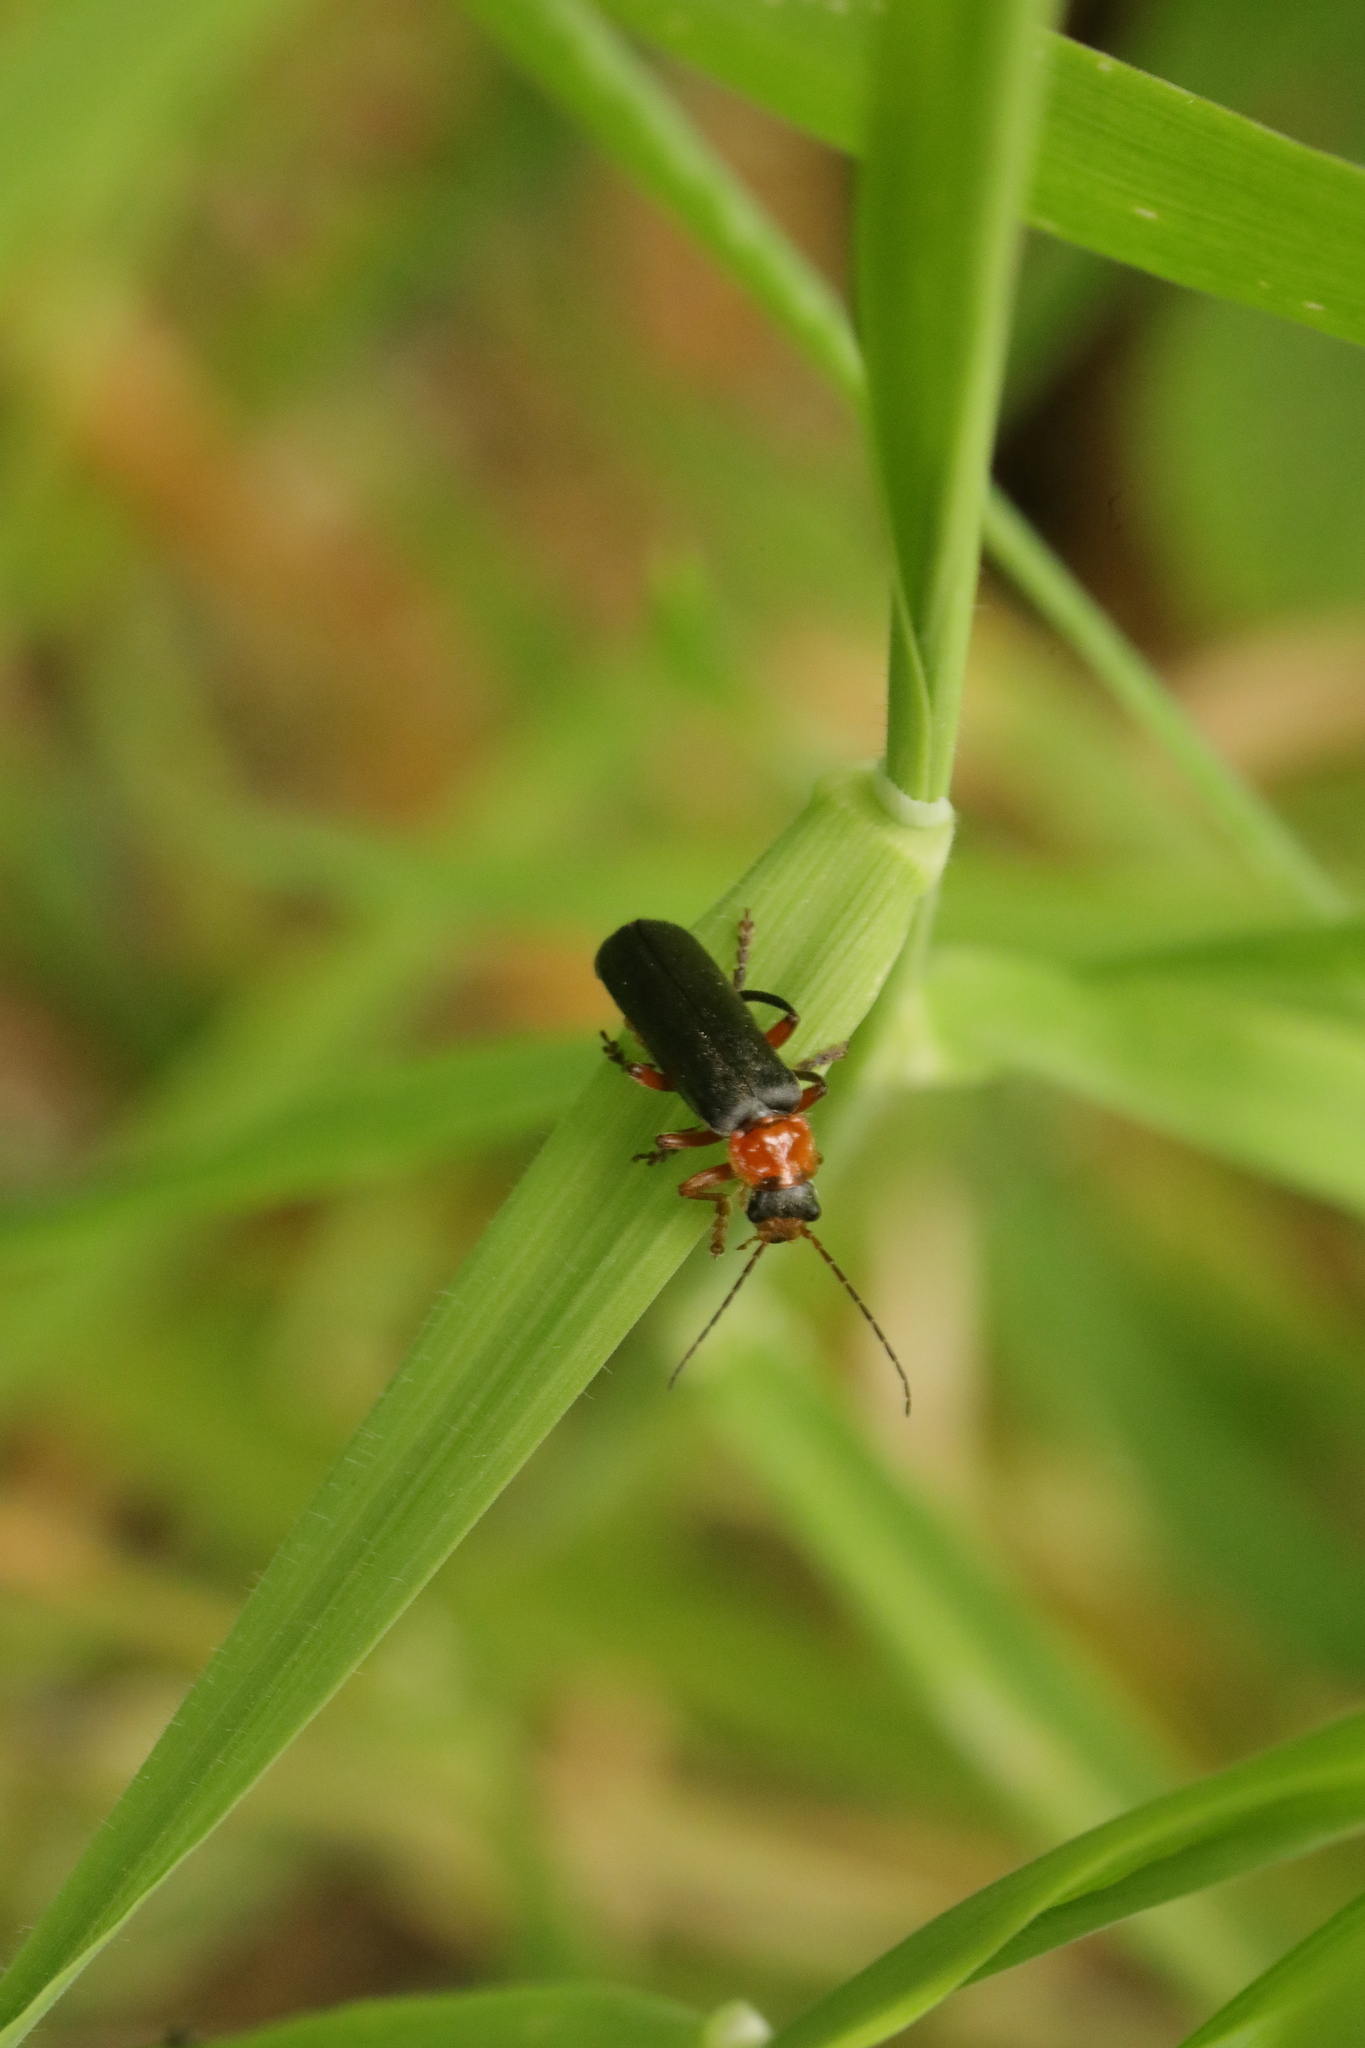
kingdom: Animalia
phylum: Arthropoda
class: Insecta
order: Coleoptera
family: Cantharidae
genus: Cantharis
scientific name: Cantharis pellucida
